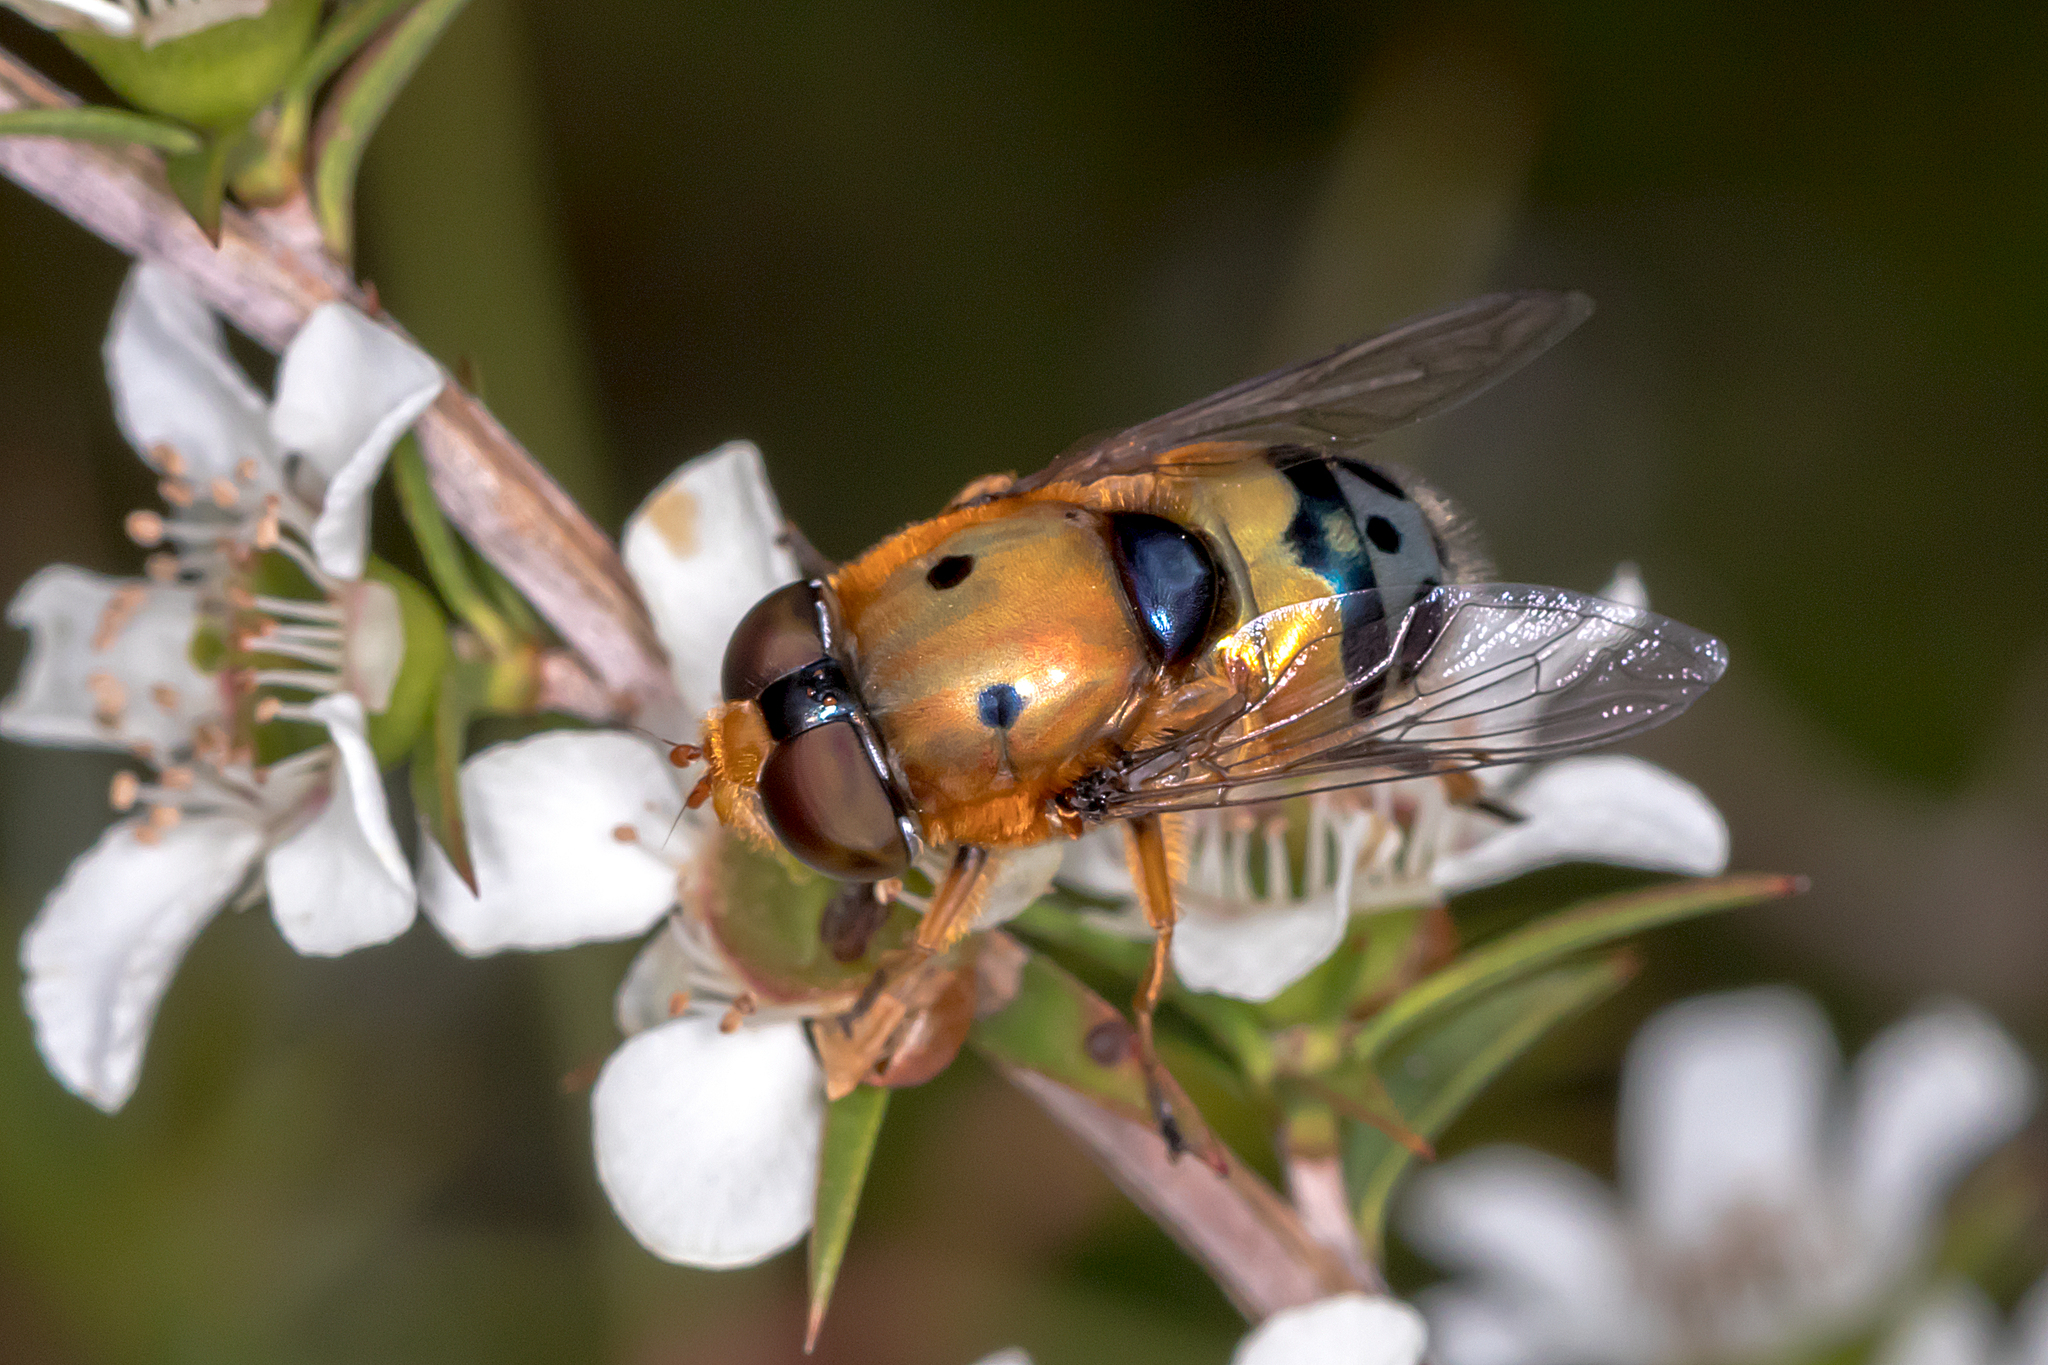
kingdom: Animalia
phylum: Arthropoda
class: Insecta
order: Diptera
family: Syrphidae
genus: Austalis
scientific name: Austalis pulchella
